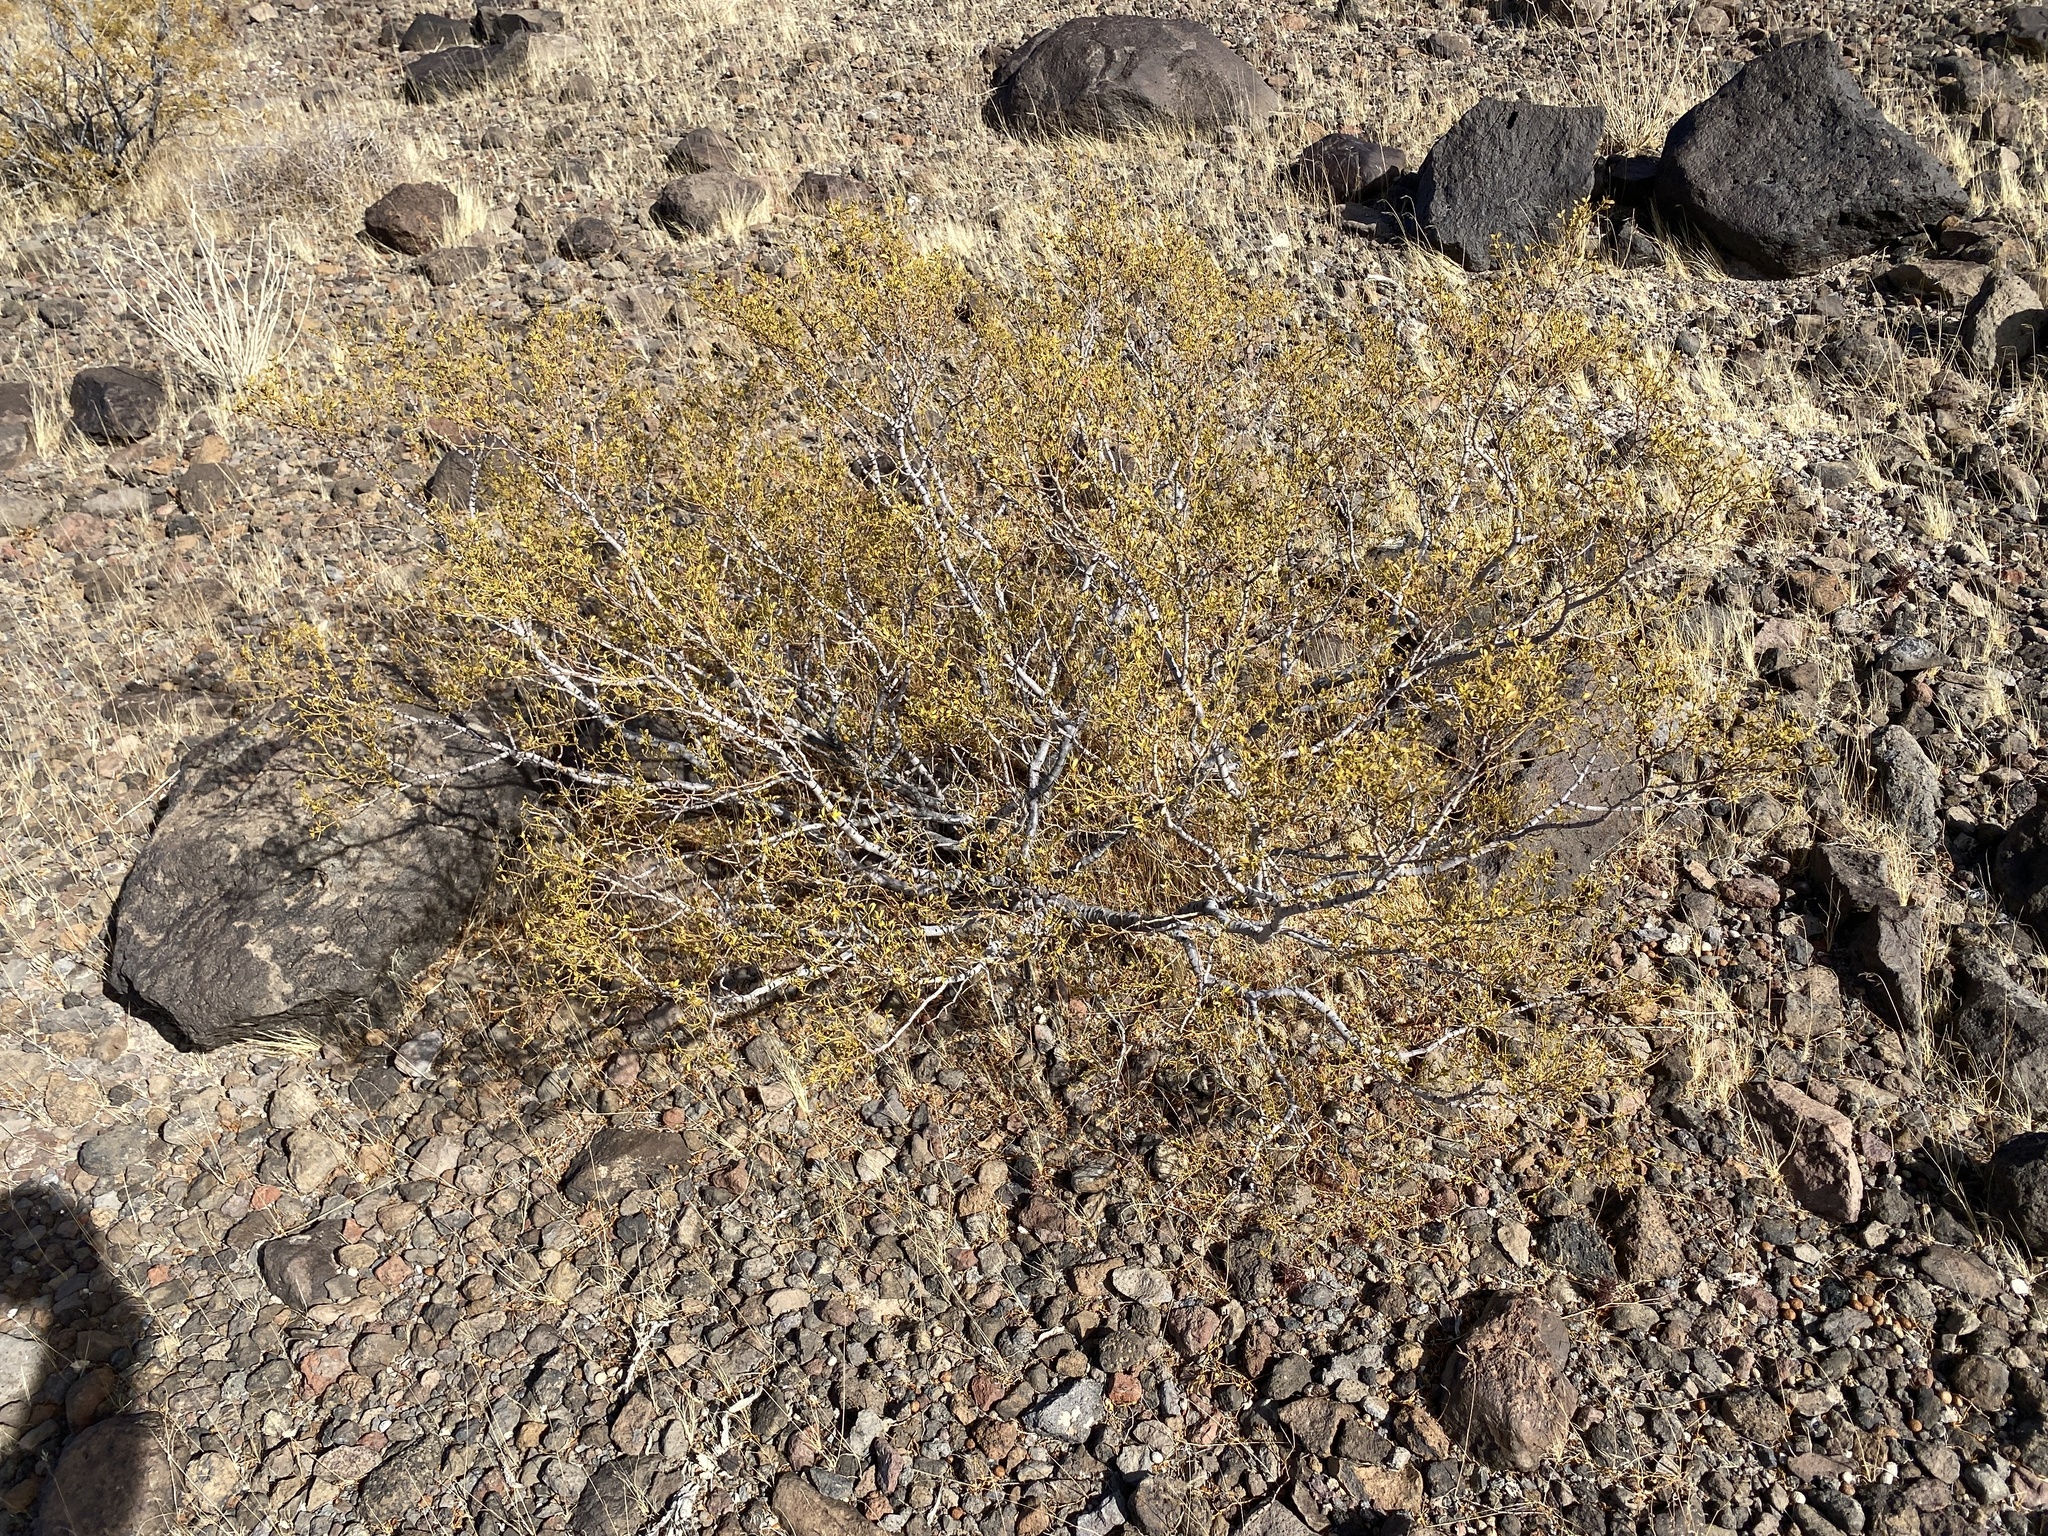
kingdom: Plantae
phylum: Tracheophyta
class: Magnoliopsida
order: Zygophyllales
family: Zygophyllaceae
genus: Larrea
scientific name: Larrea tridentata
